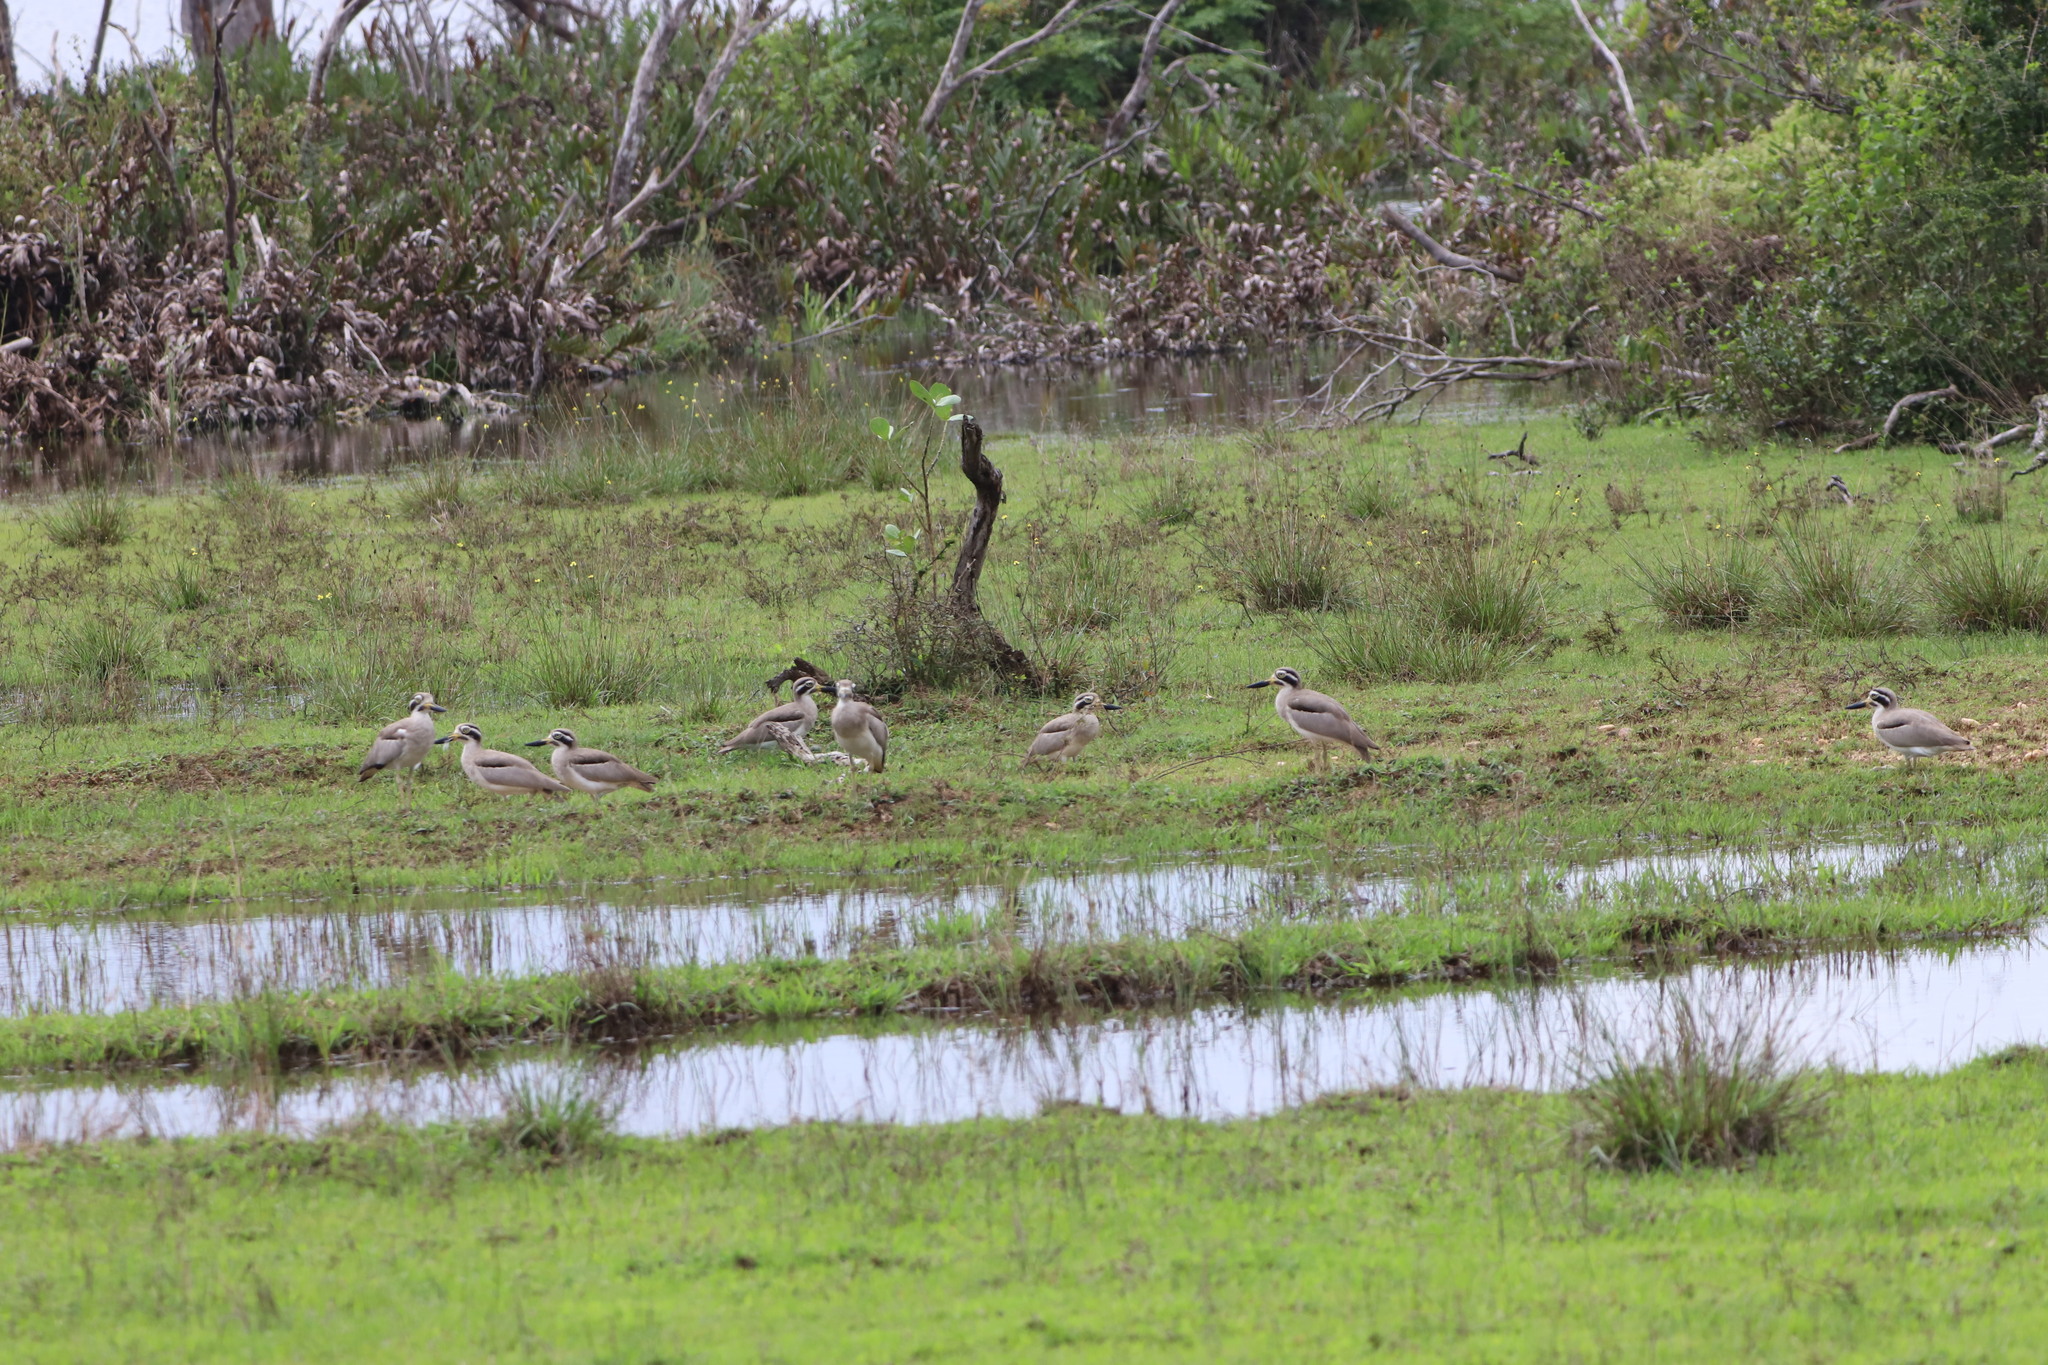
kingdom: Animalia
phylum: Chordata
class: Aves
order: Charadriiformes
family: Burhinidae
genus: Esacus
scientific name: Esacus recurvirostris
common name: Great stone-curlew
